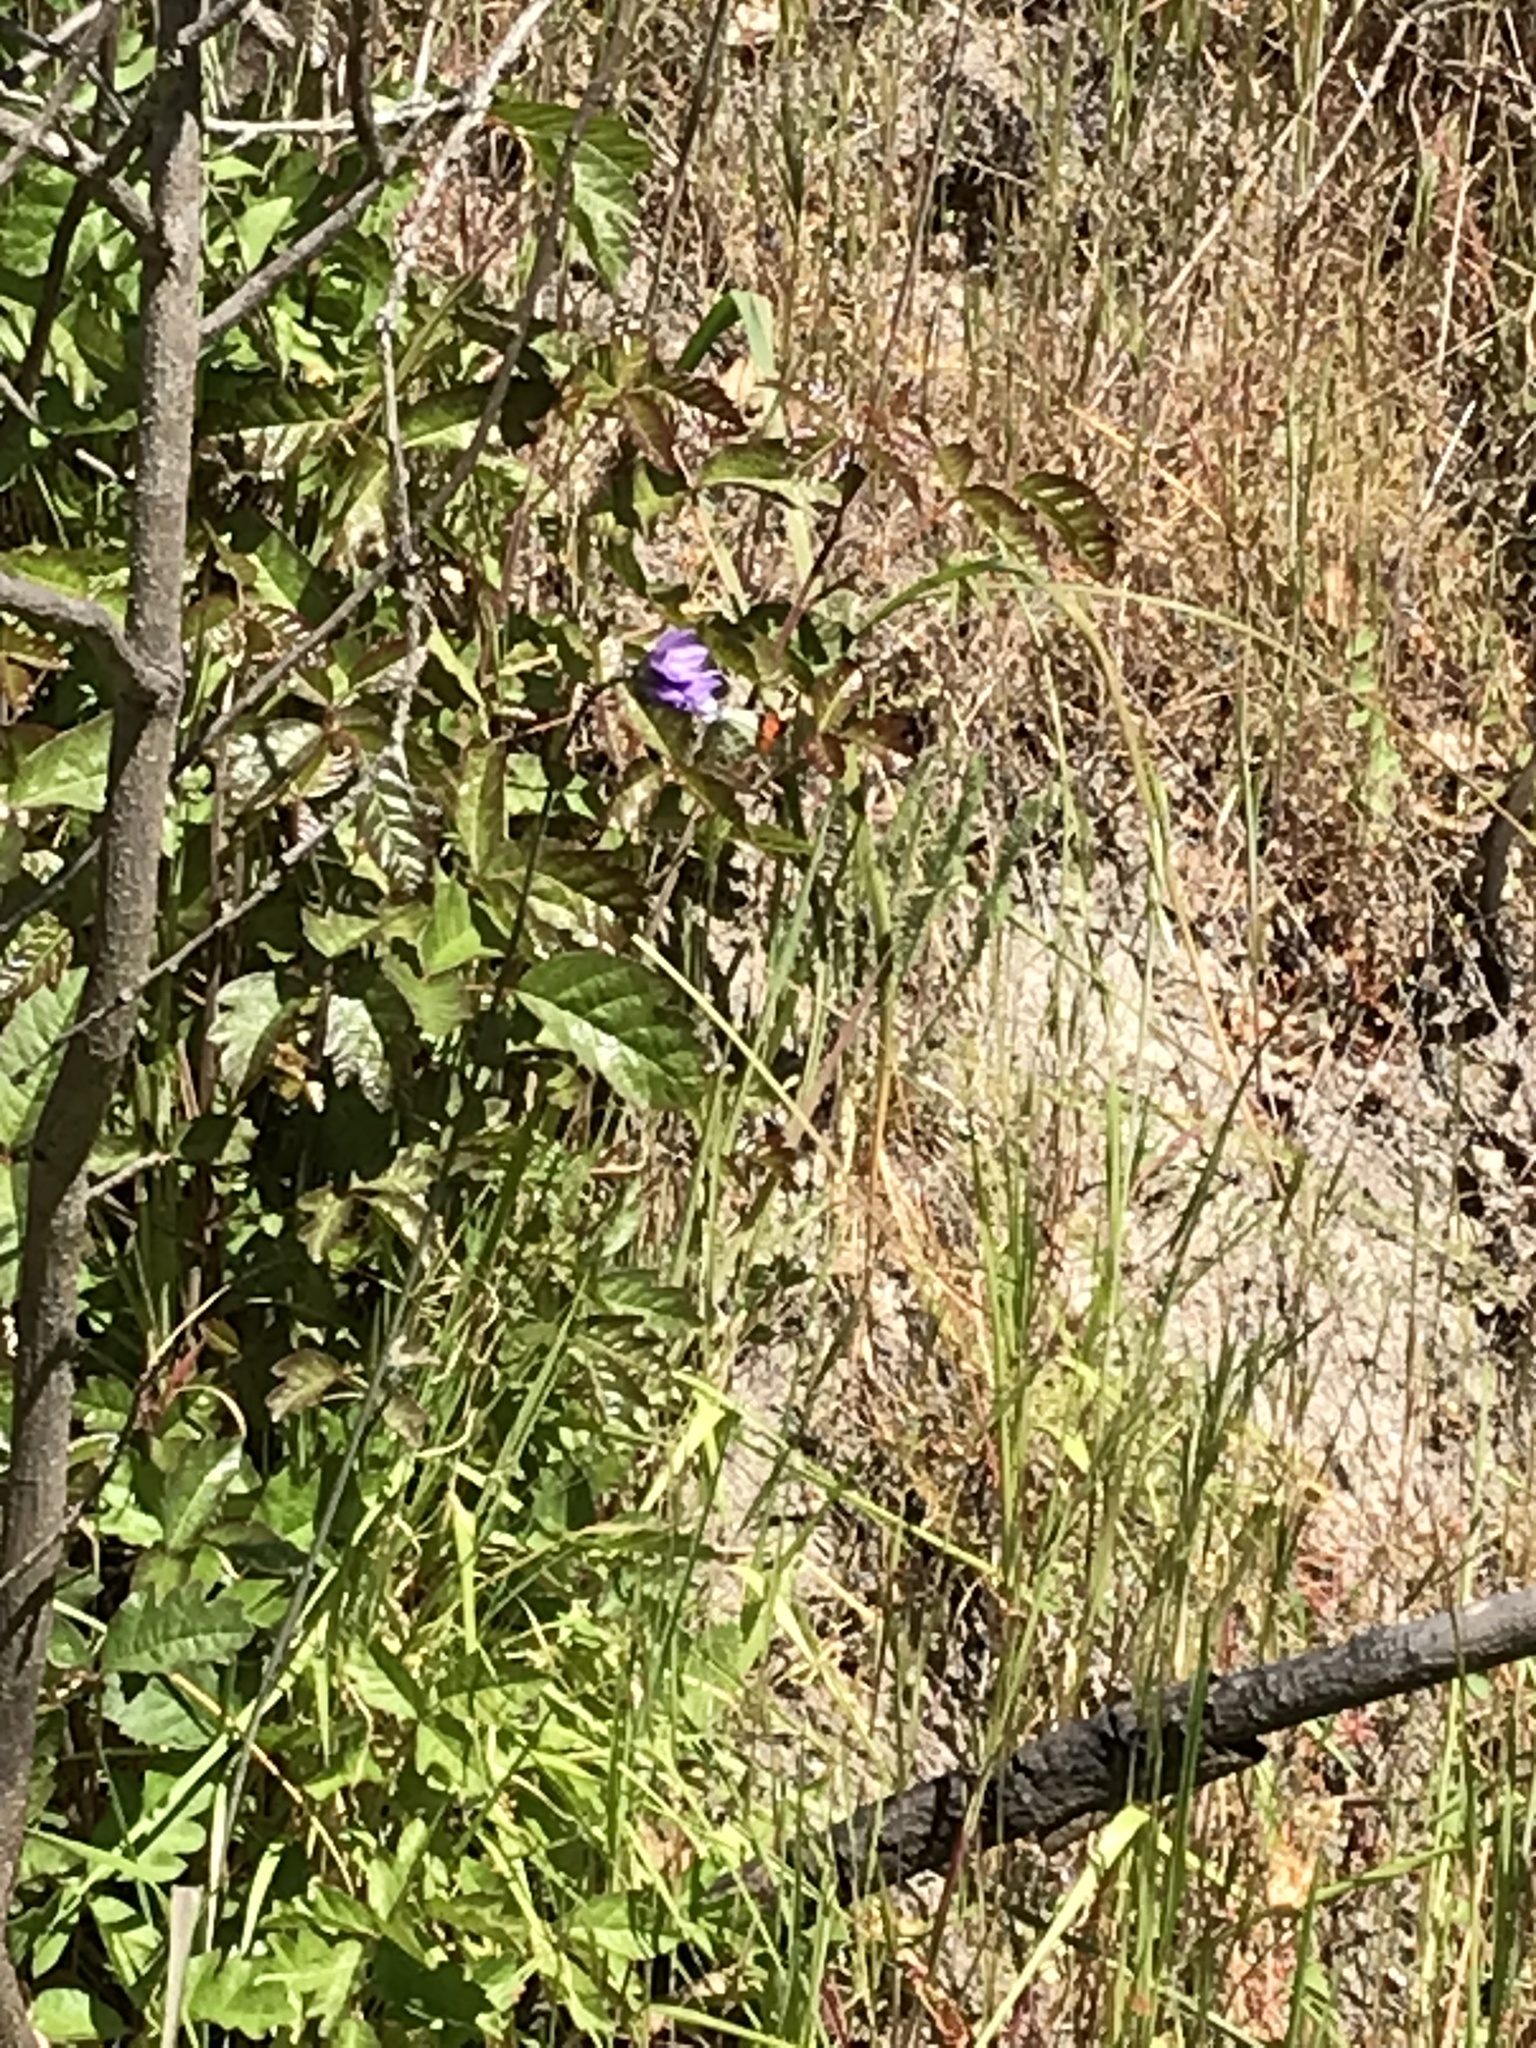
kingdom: Animalia
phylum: Arthropoda
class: Insecta
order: Lepidoptera
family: Pieridae
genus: Anthocharis
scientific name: Anthocharis sara
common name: Sara's orangetip
